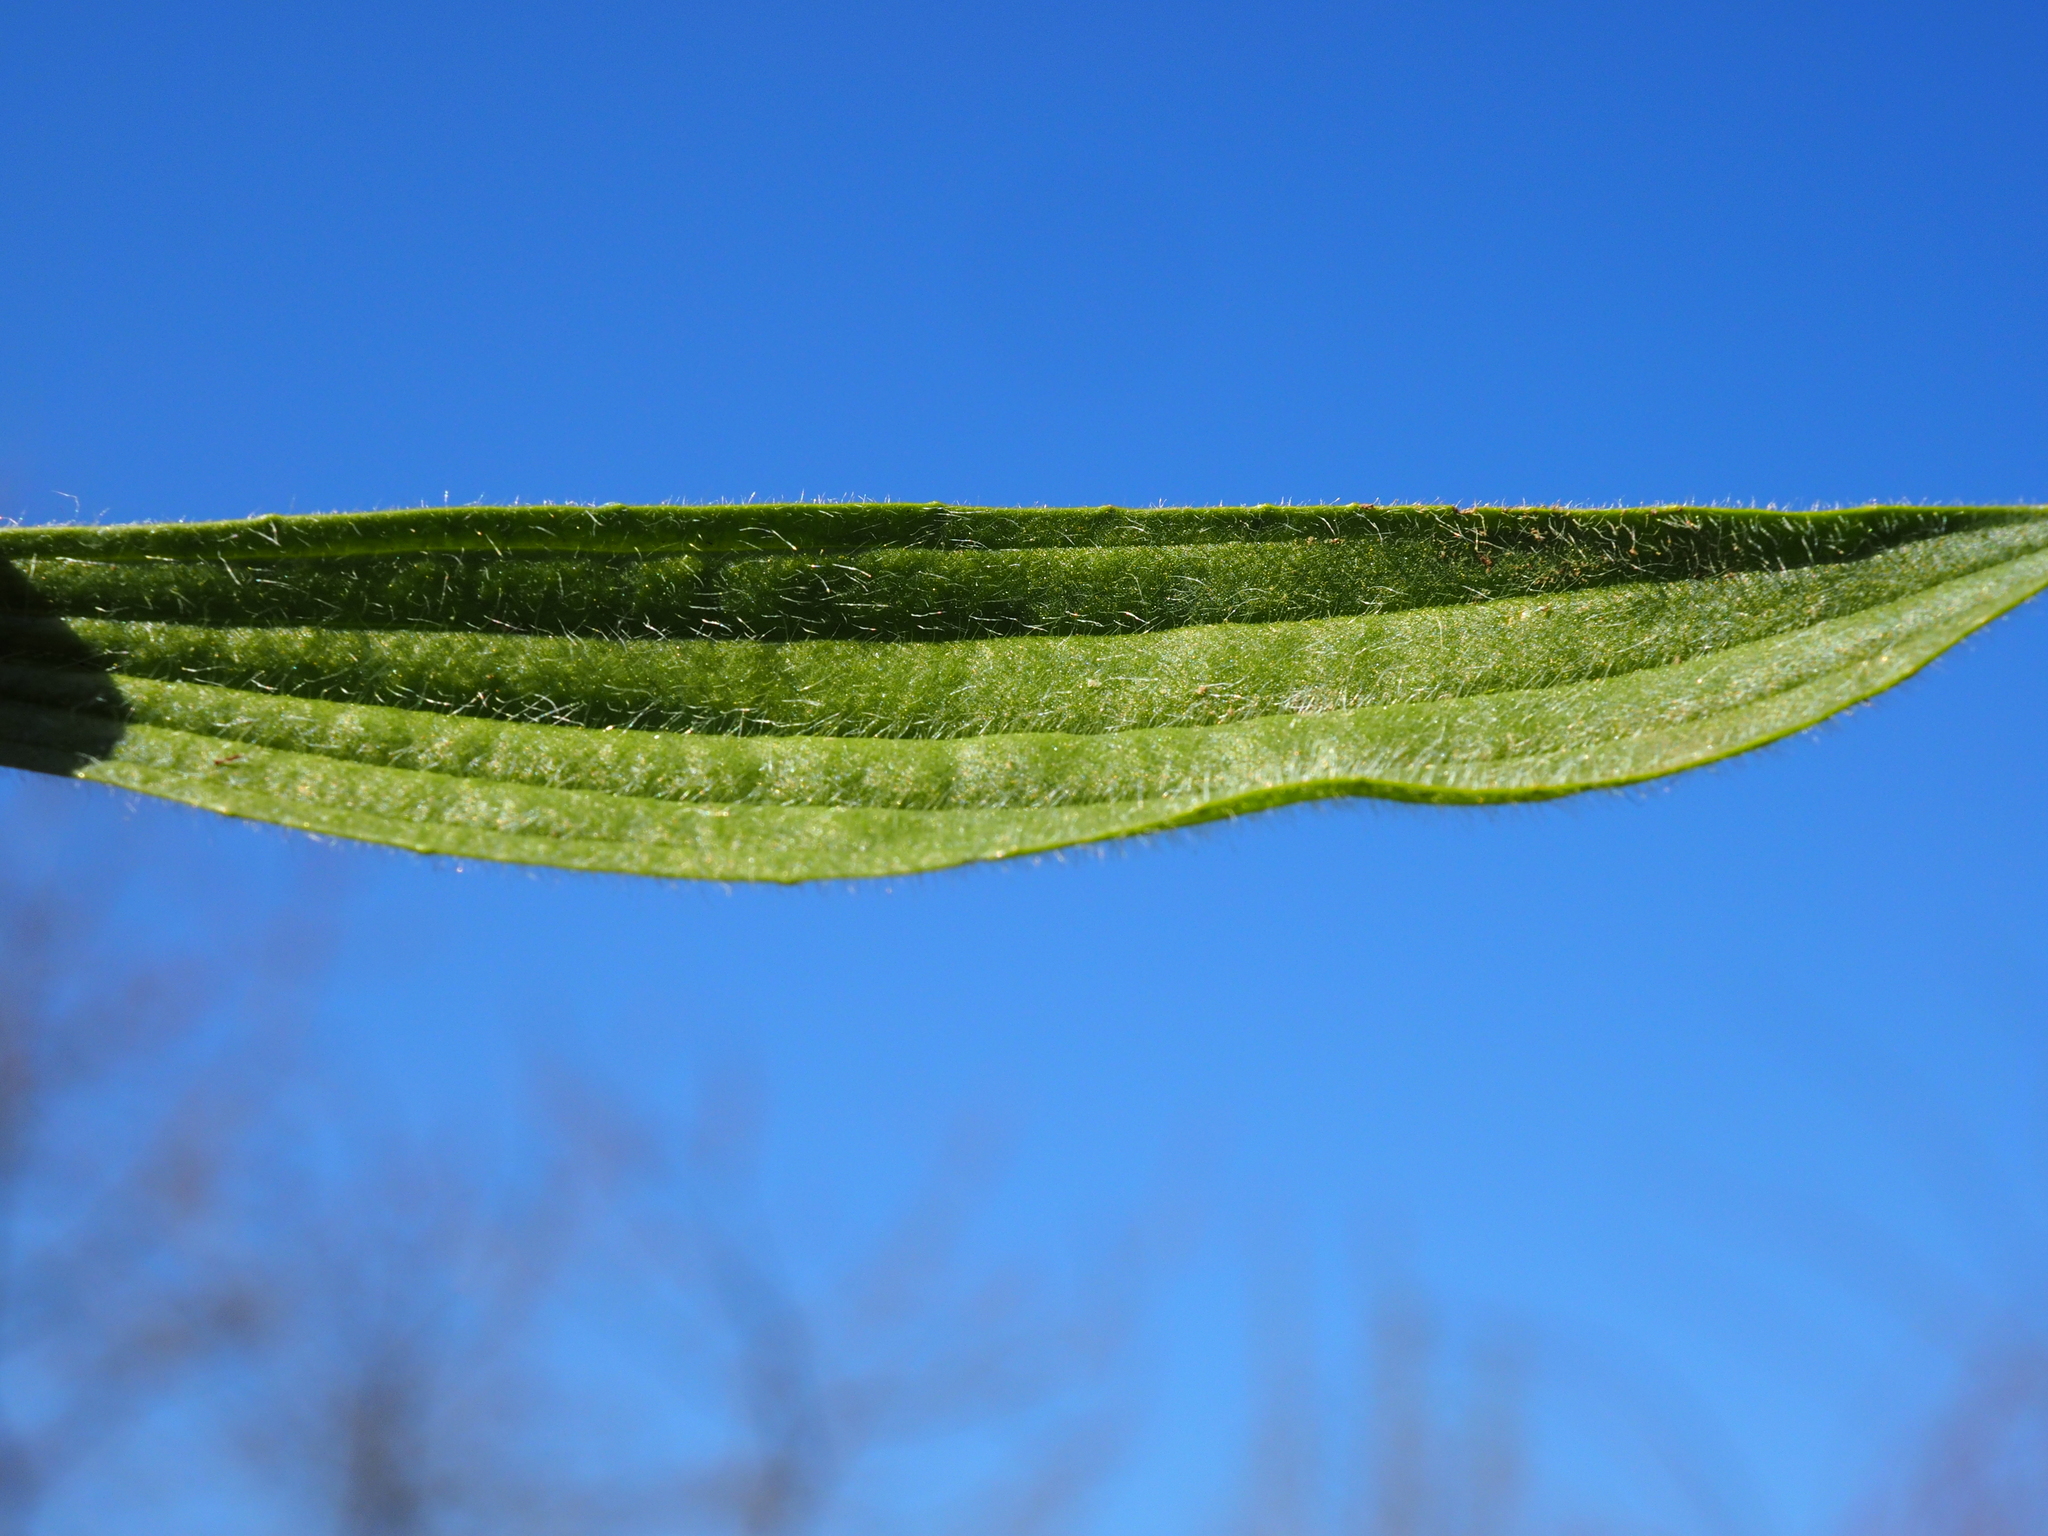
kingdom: Plantae
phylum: Tracheophyta
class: Magnoliopsida
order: Lamiales
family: Plantaginaceae
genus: Plantago
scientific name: Plantago lanceolata
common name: Ribwort plantain
